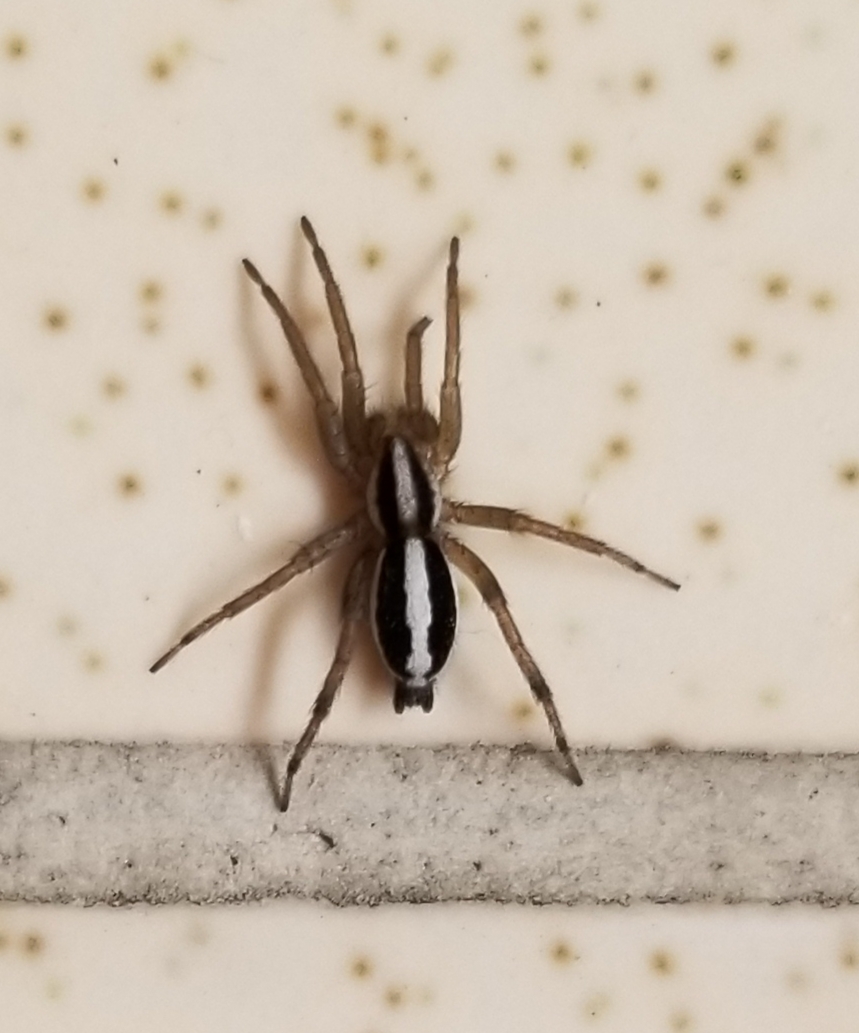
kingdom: Animalia
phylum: Arthropoda
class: Arachnida
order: Araneae
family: Gnaphosidae
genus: Cesonia
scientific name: Cesonia bilineata
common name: Two-lined stealthy ground spider
